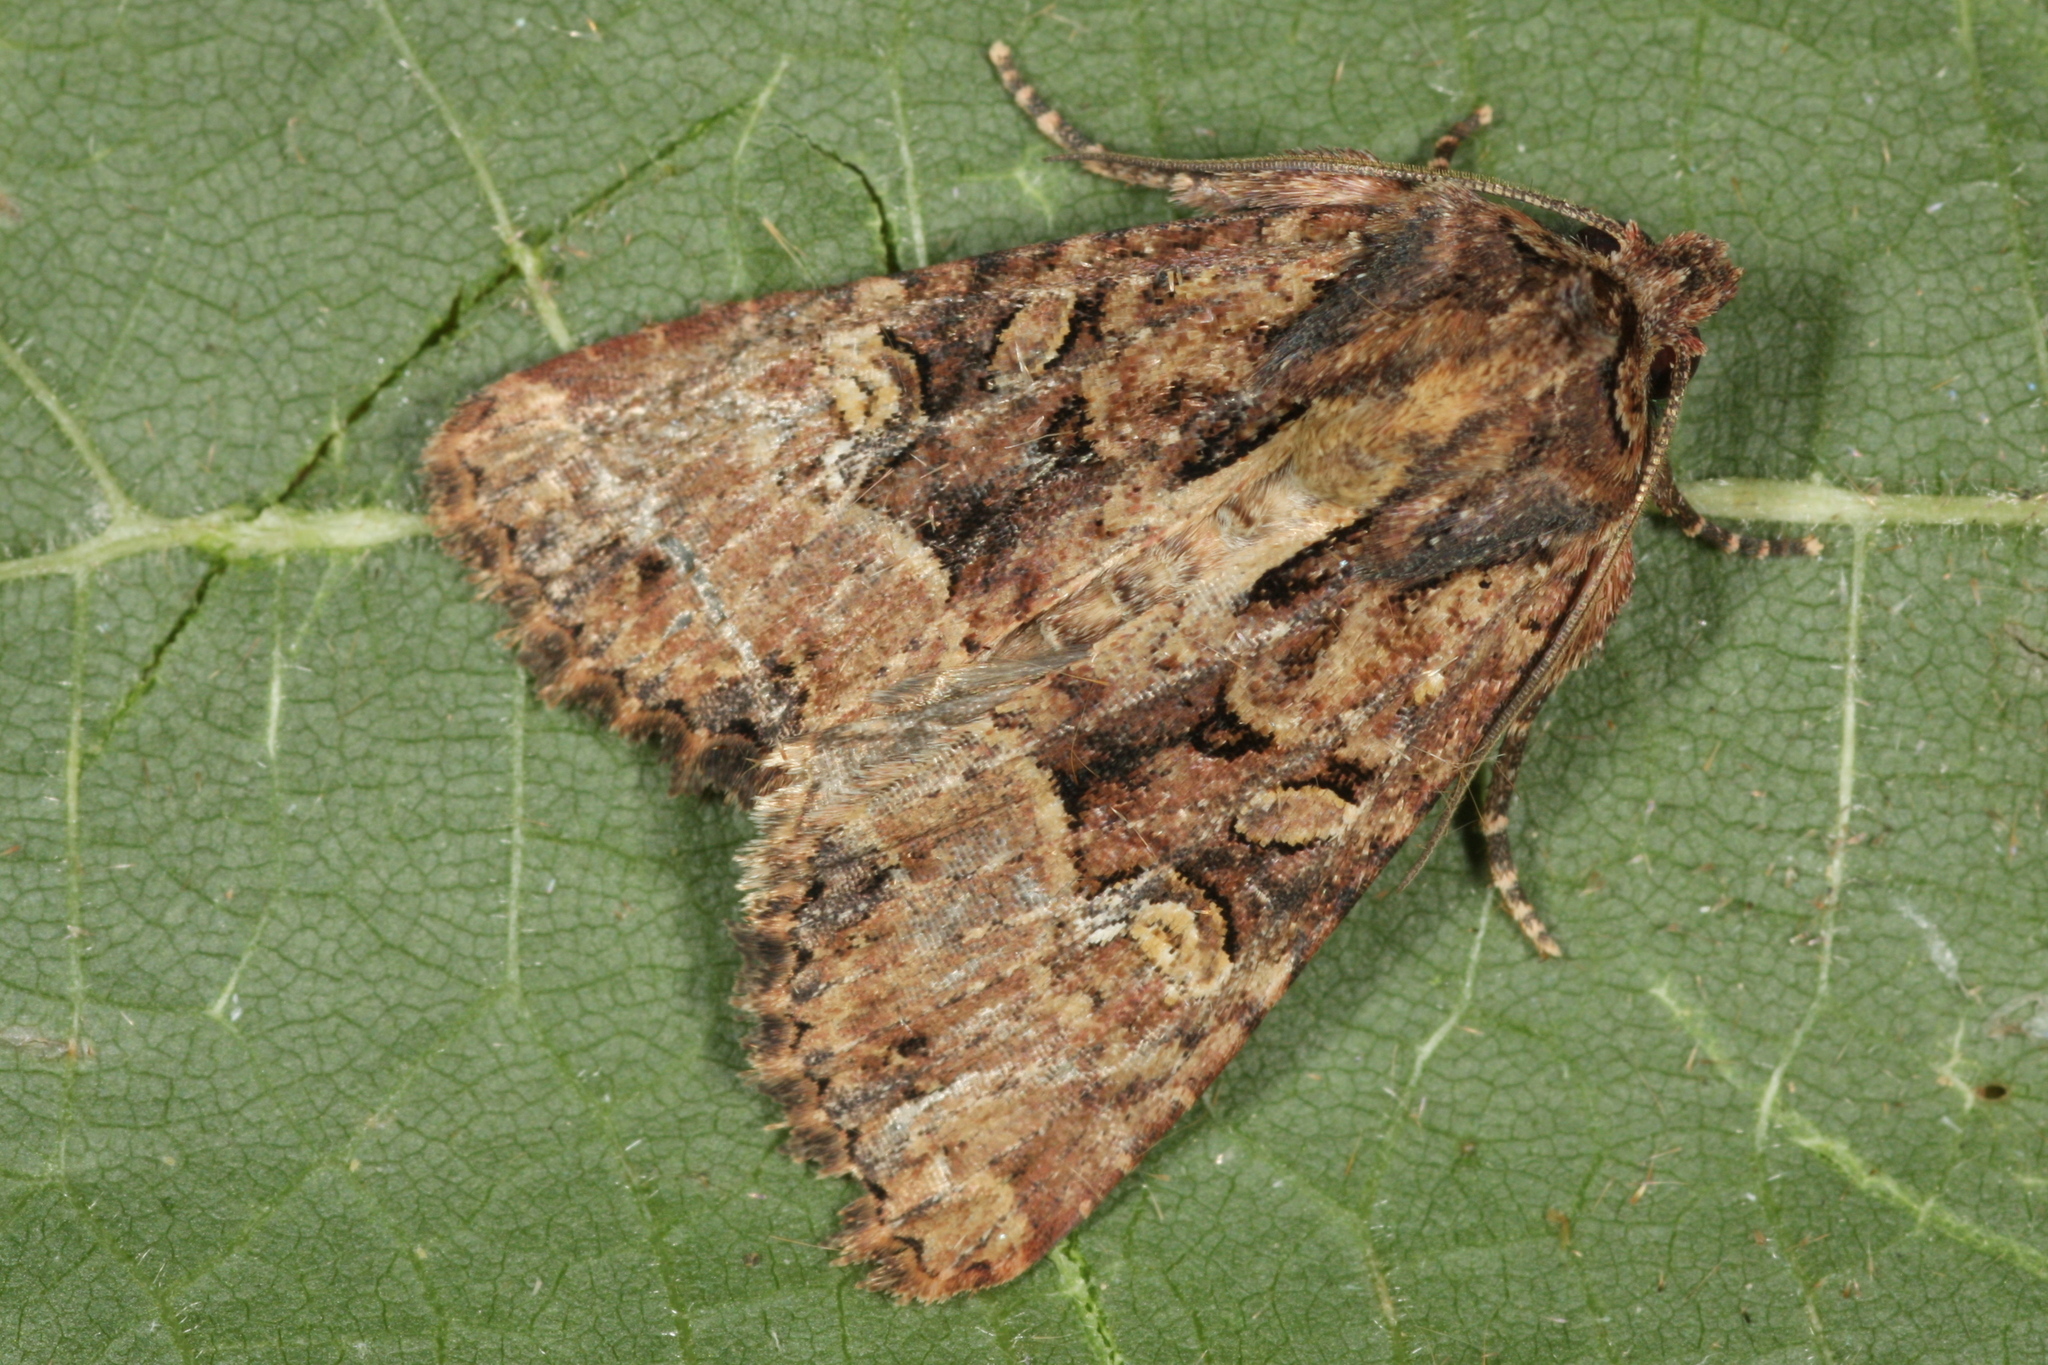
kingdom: Animalia
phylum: Arthropoda
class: Insecta
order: Lepidoptera
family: Noctuidae
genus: Mesapamea
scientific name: Mesapamea
